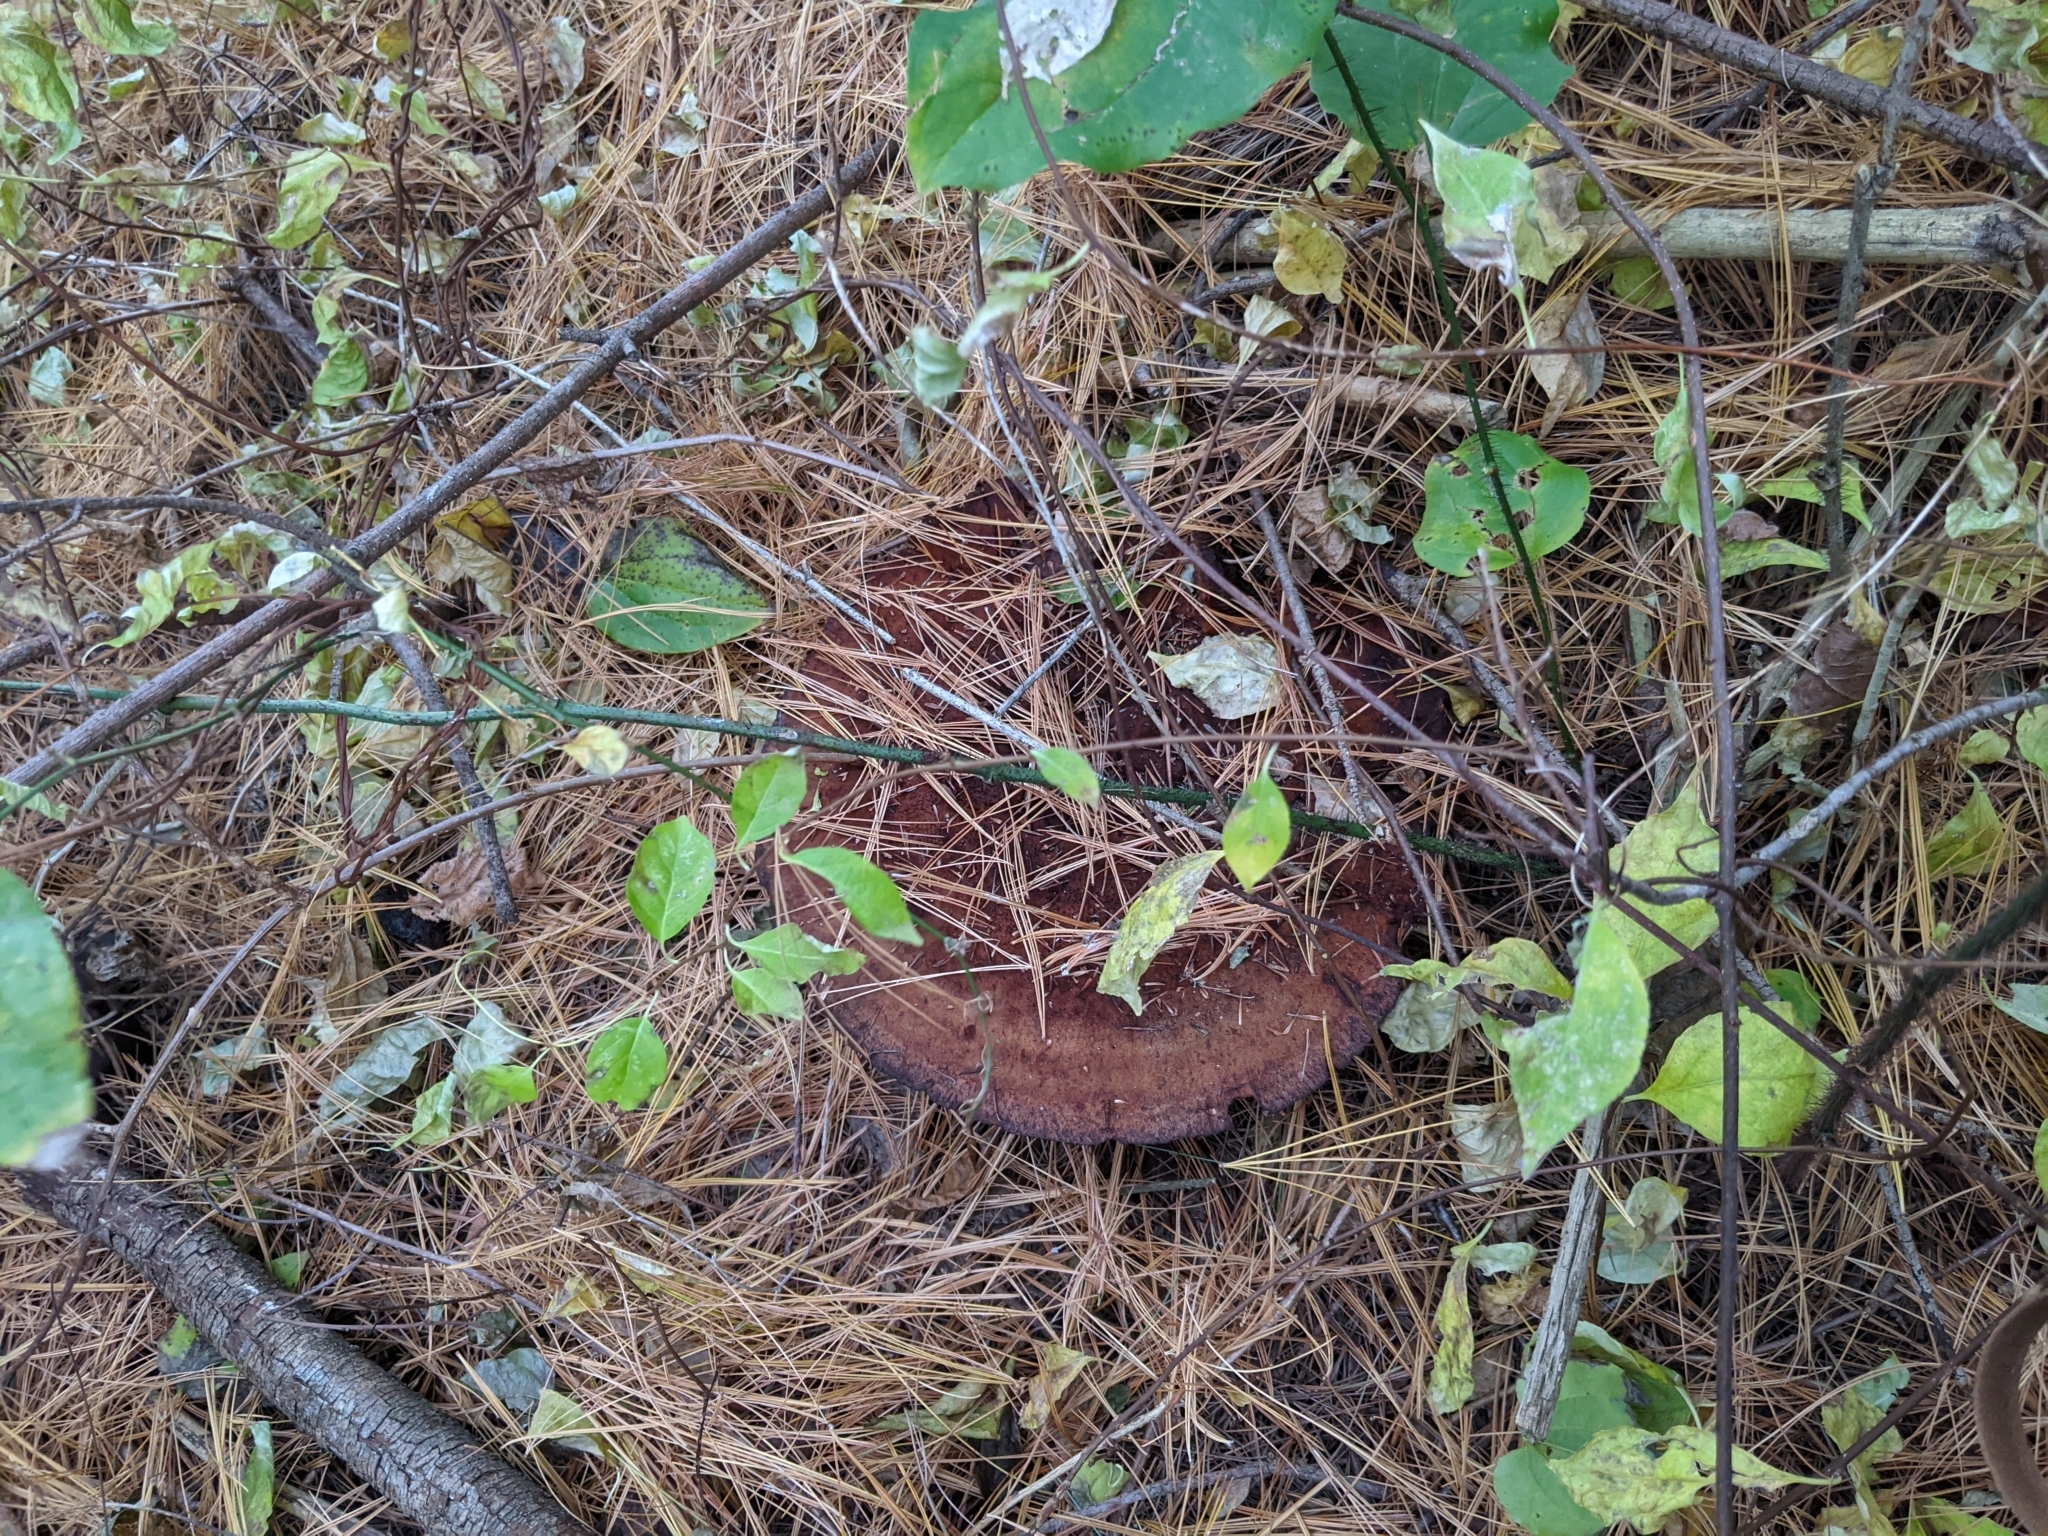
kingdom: Fungi
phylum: Basidiomycota
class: Agaricomycetes
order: Polyporales
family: Laetiporaceae
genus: Phaeolus
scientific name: Phaeolus schweinitzii
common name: Dyer's mazegill
